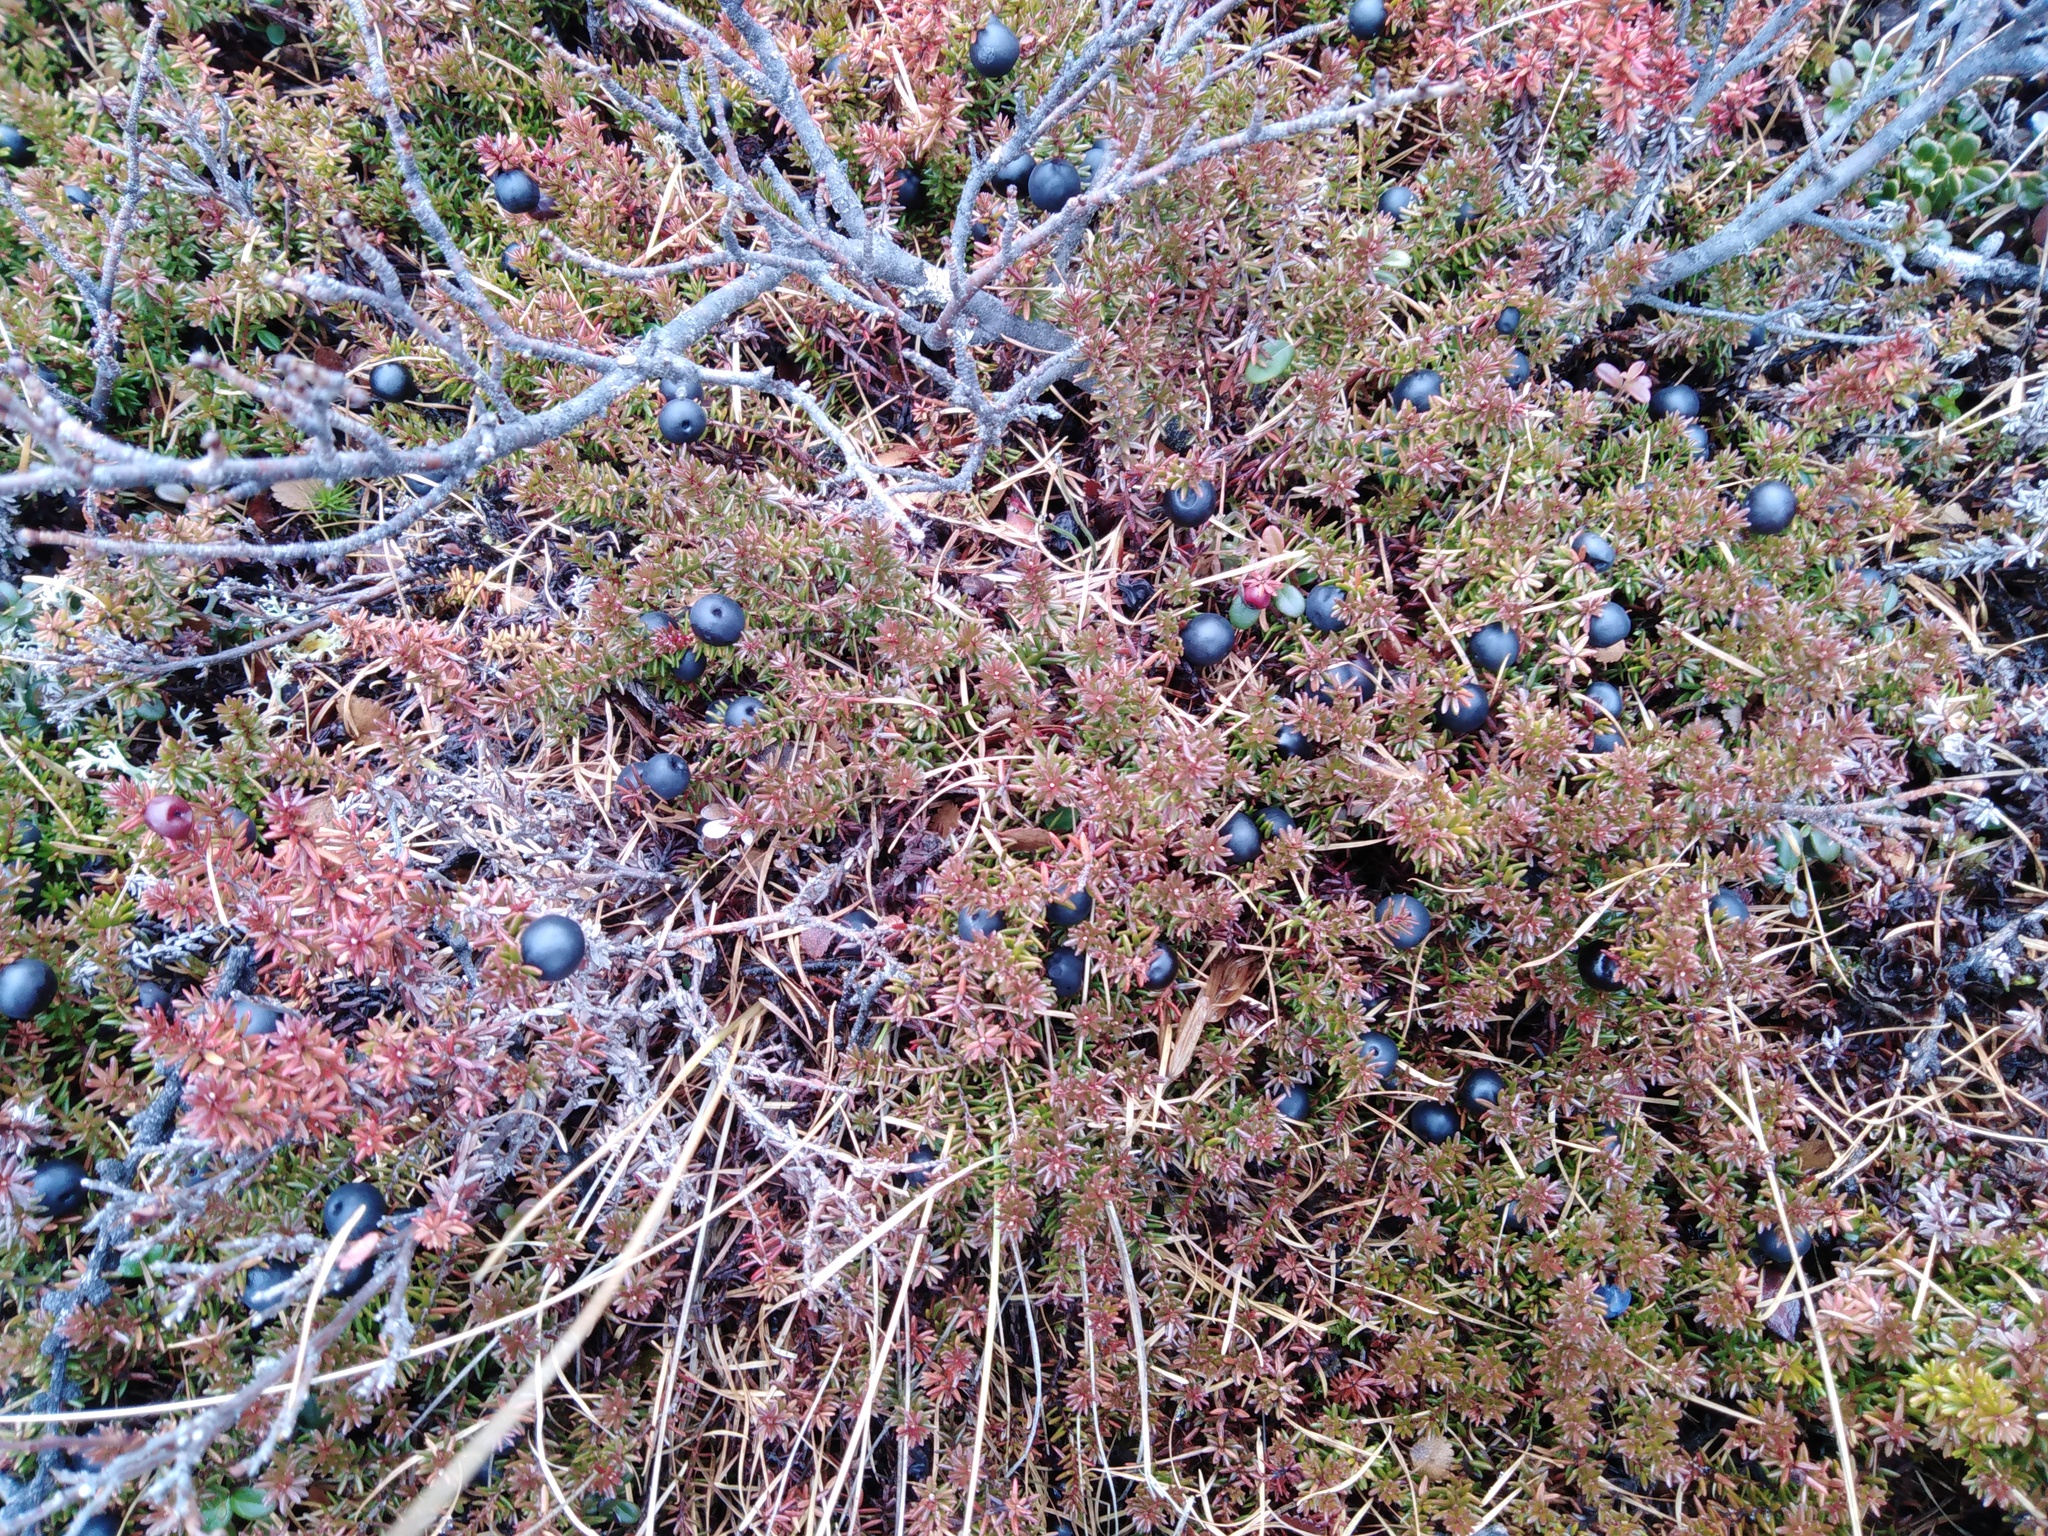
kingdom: Plantae
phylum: Tracheophyta
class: Magnoliopsida
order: Ericales
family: Ericaceae
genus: Empetrum
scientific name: Empetrum nigrum
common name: Black crowberry
